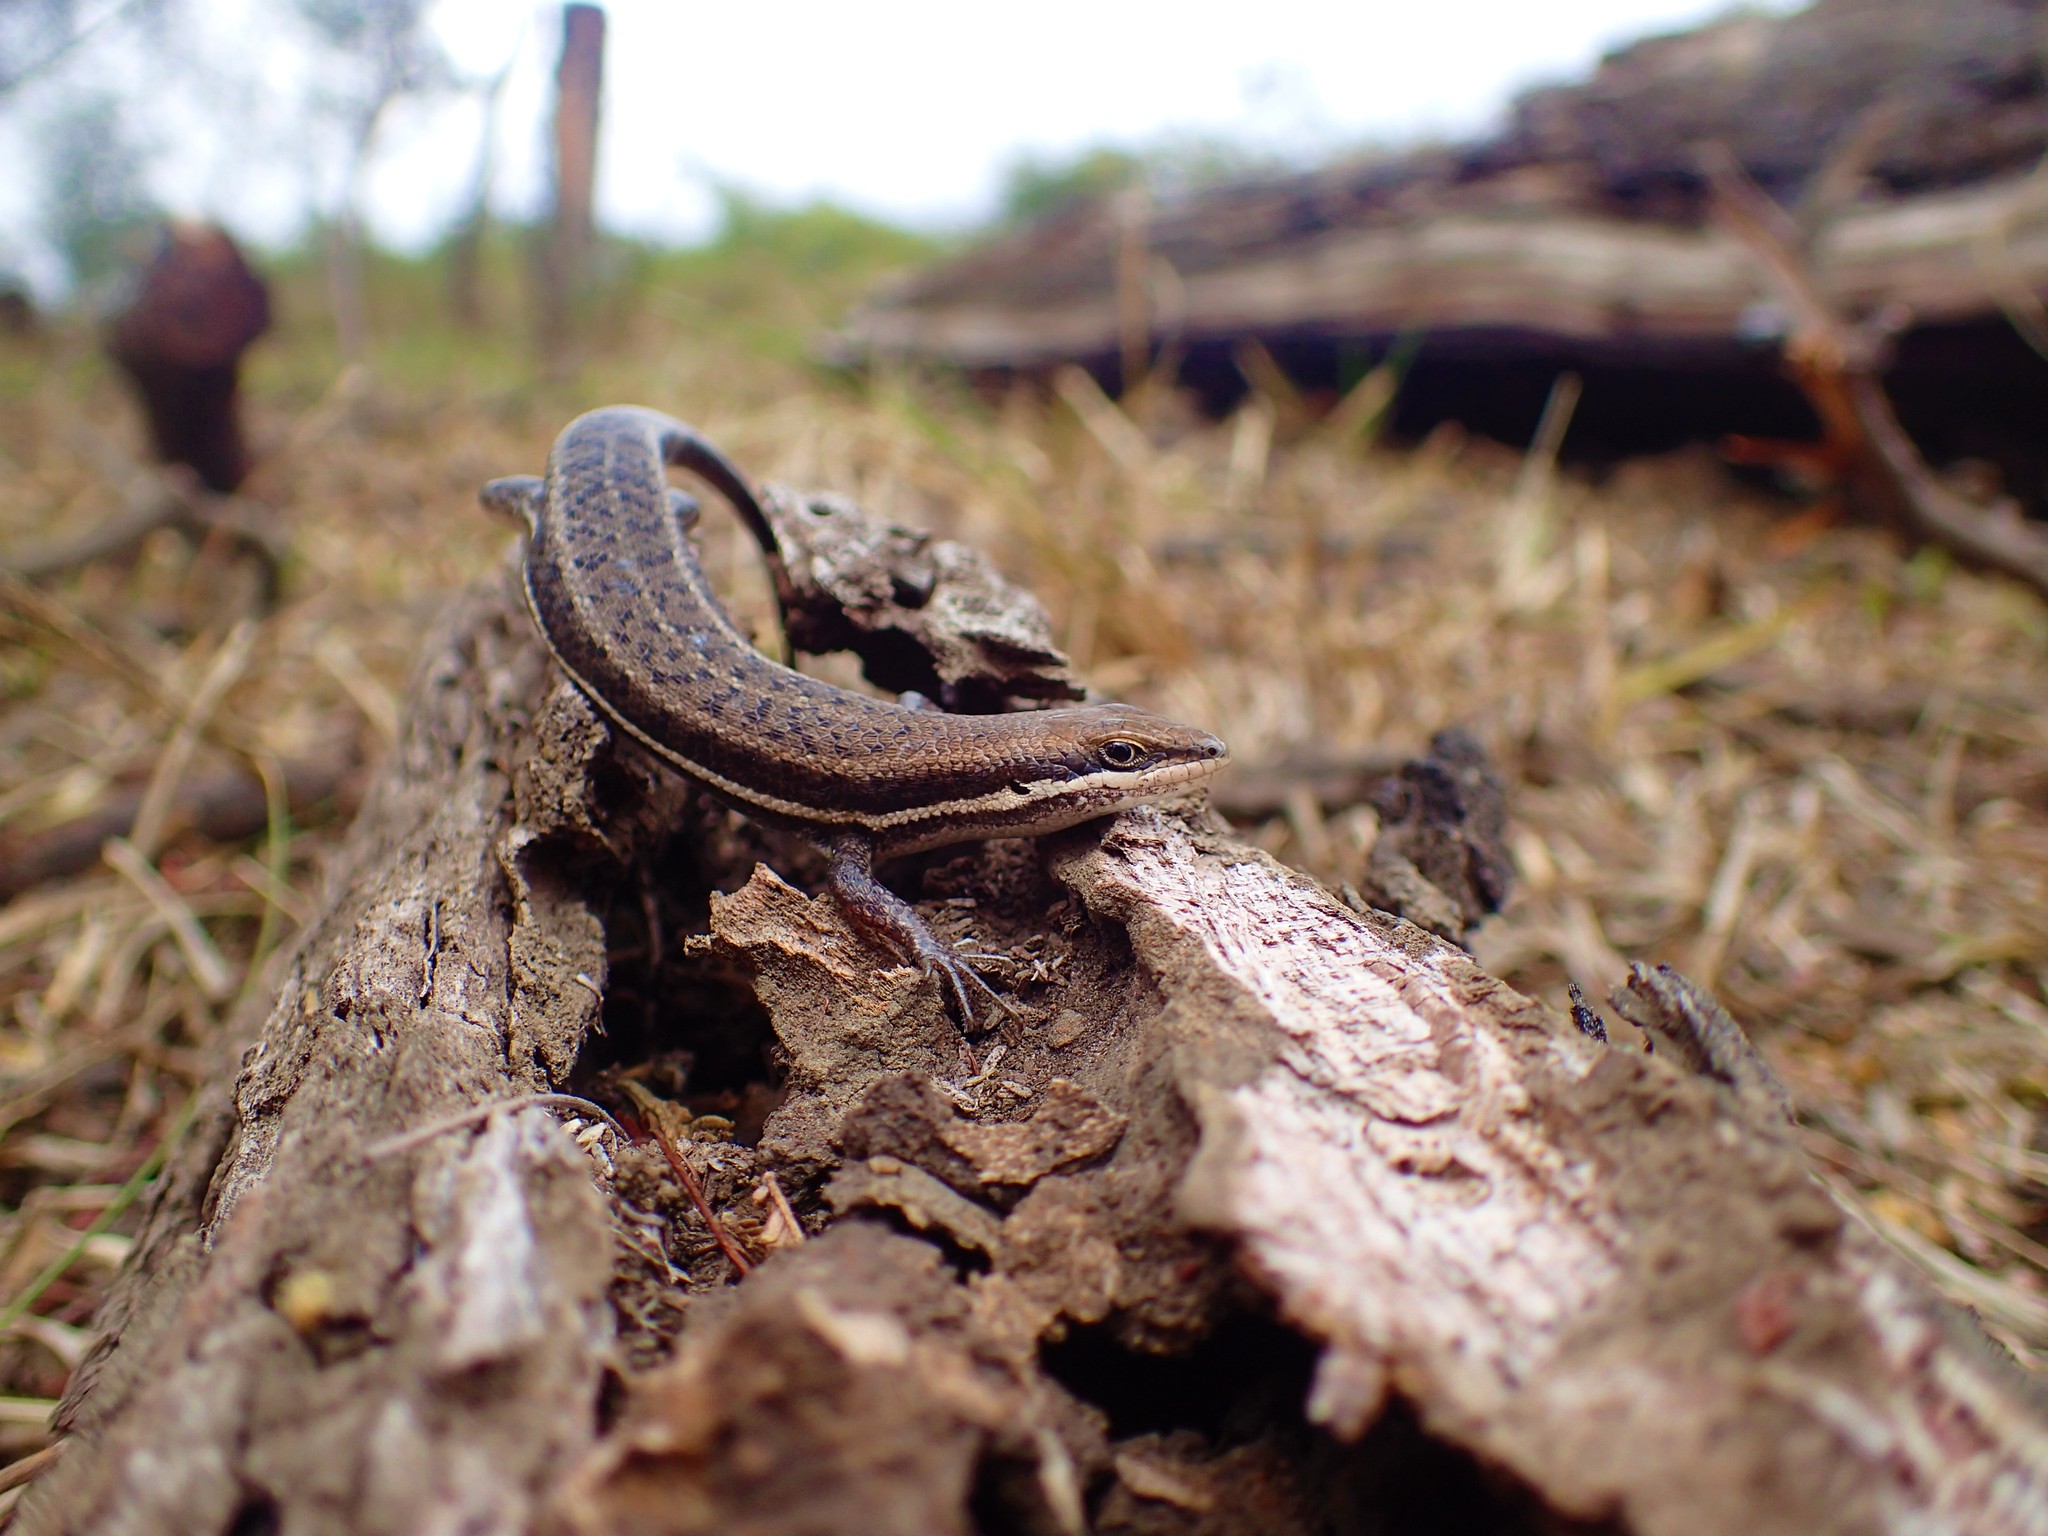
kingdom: Animalia
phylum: Chordata
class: Squamata
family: Scincidae
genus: Trachylepis
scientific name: Trachylepis varia
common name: Eastern variable skink
